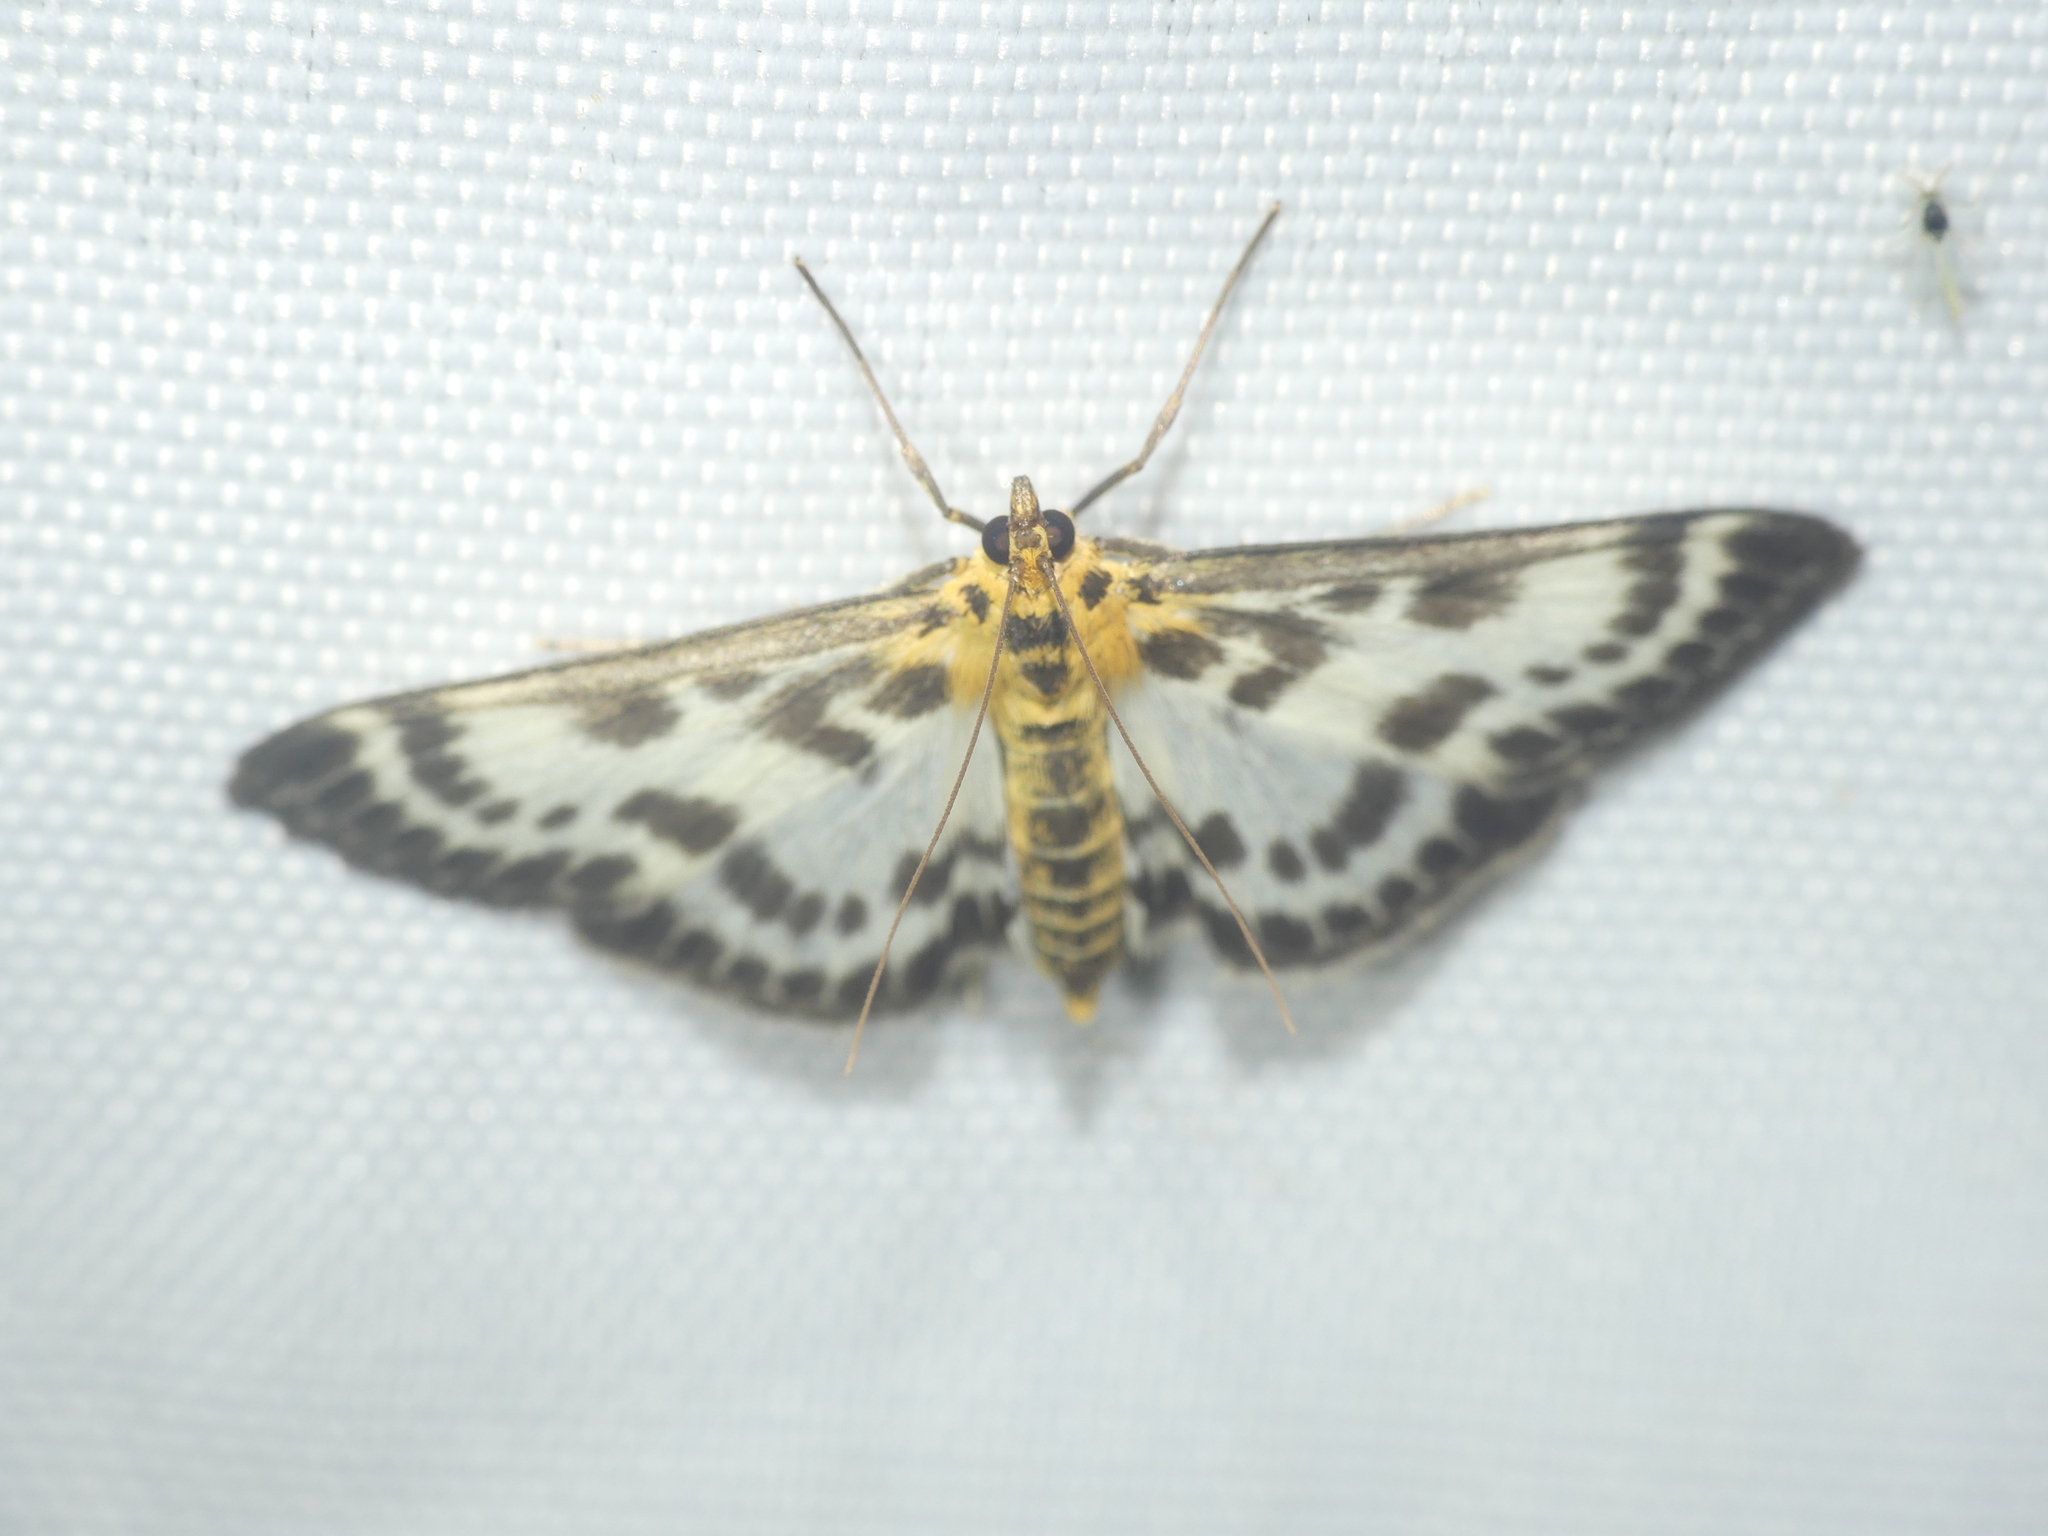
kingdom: Animalia
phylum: Arthropoda
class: Insecta
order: Lepidoptera
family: Crambidae
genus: Anania
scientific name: Anania hortulata
